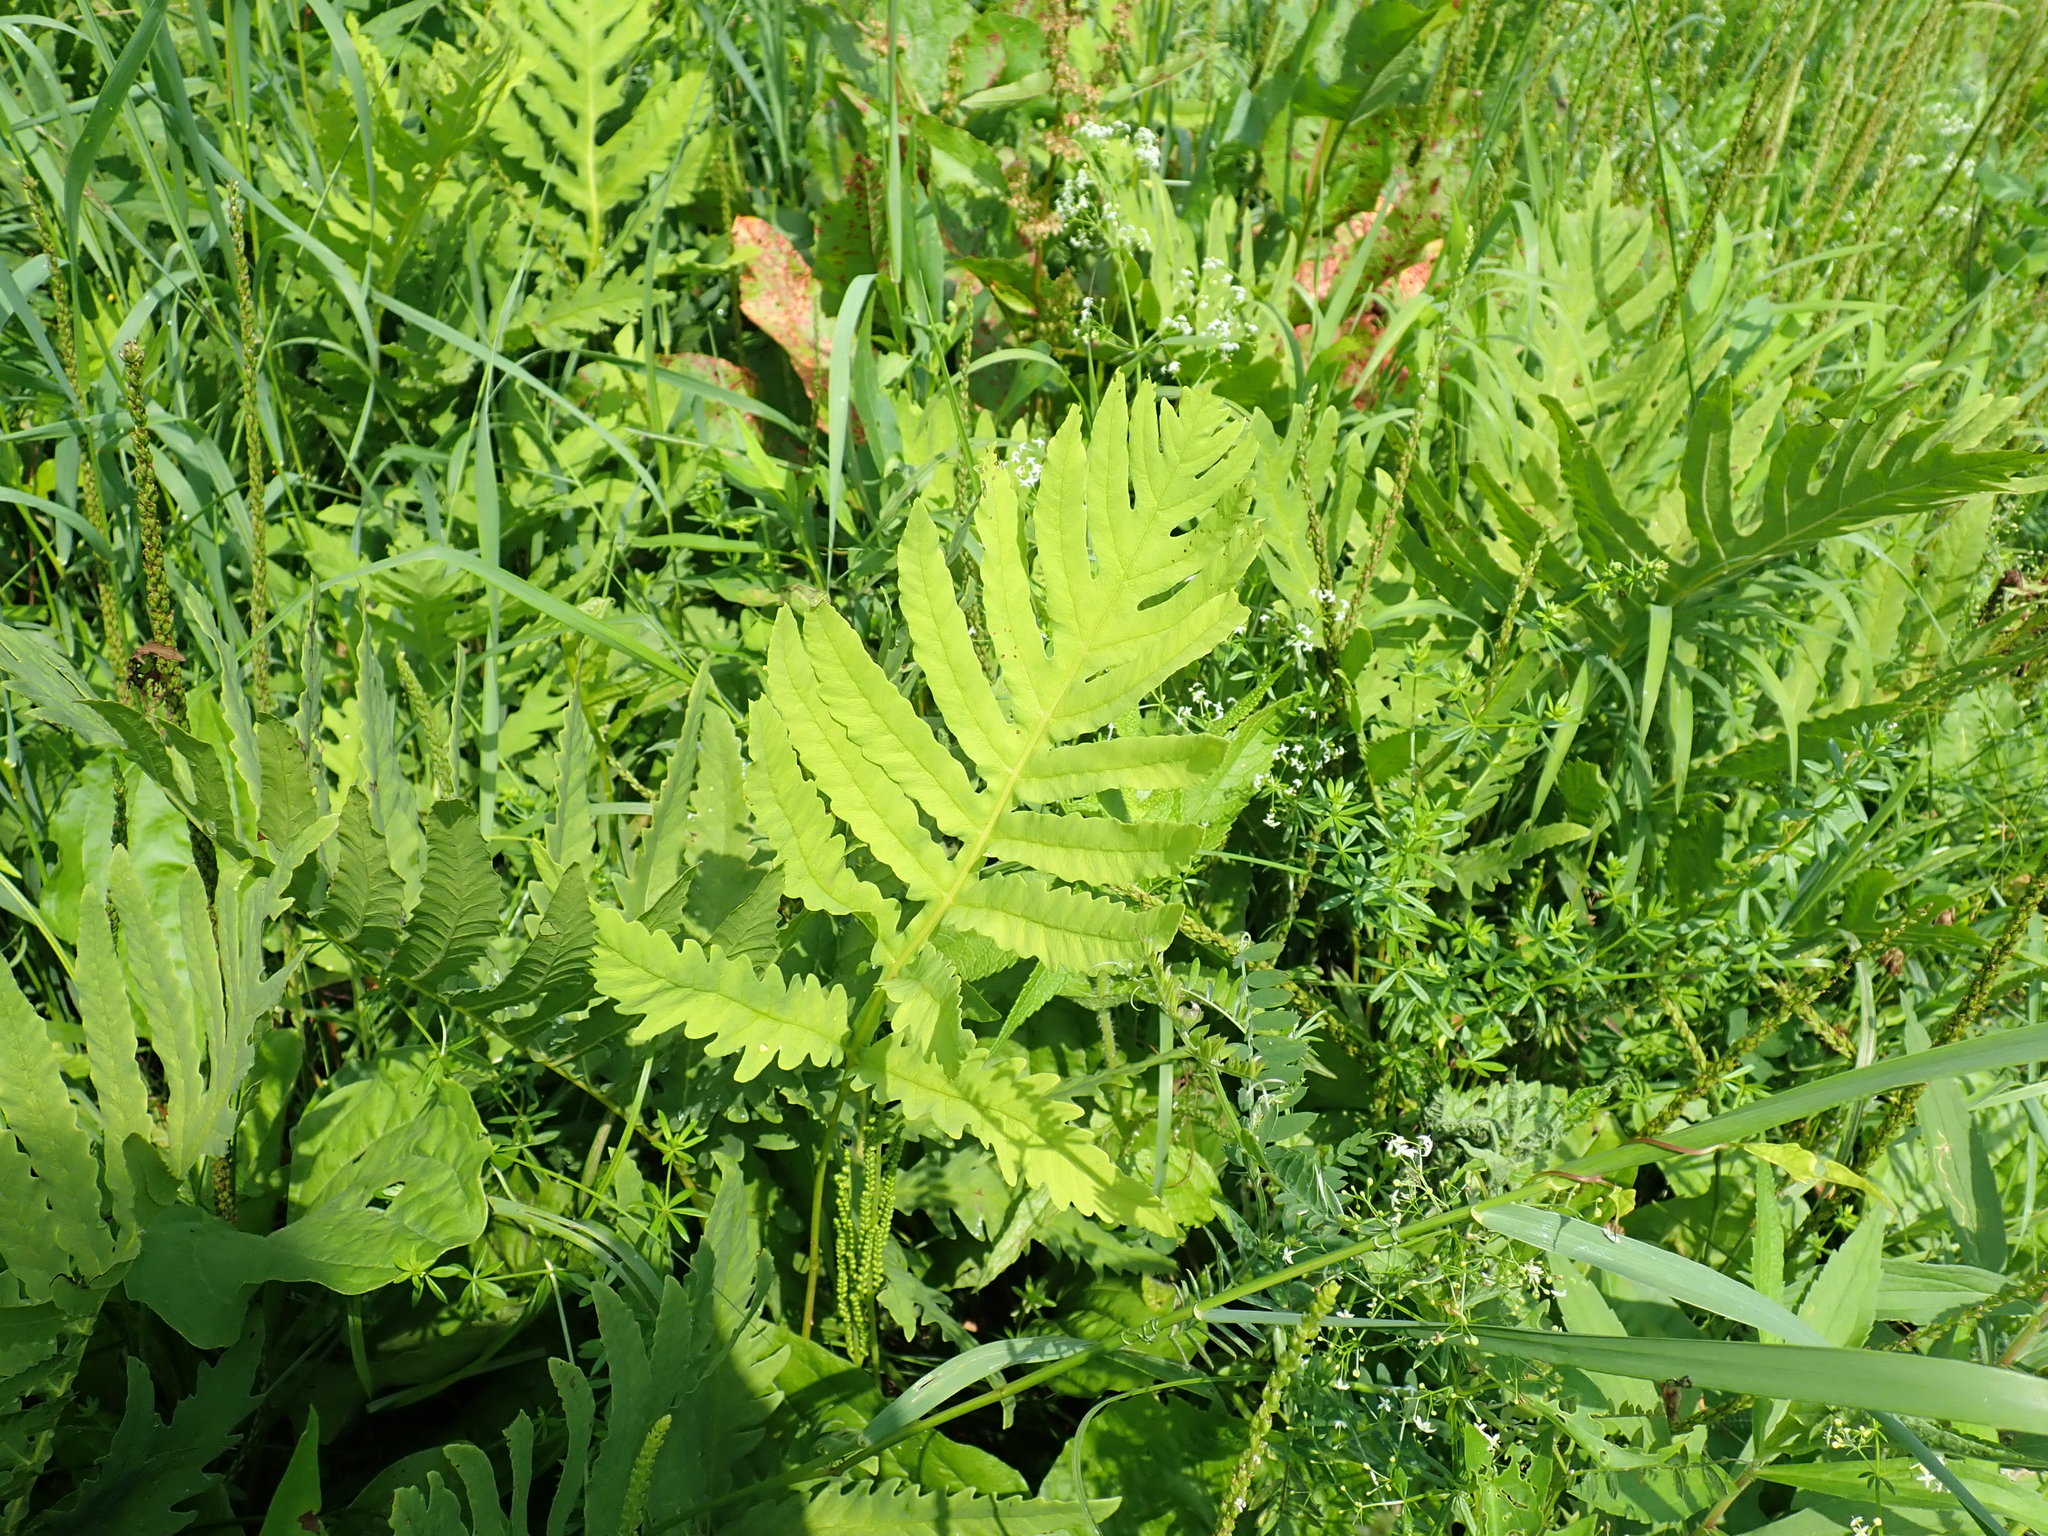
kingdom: Plantae
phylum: Tracheophyta
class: Polypodiopsida
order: Polypodiales
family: Onocleaceae
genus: Onoclea
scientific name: Onoclea sensibilis
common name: Sensitive fern
